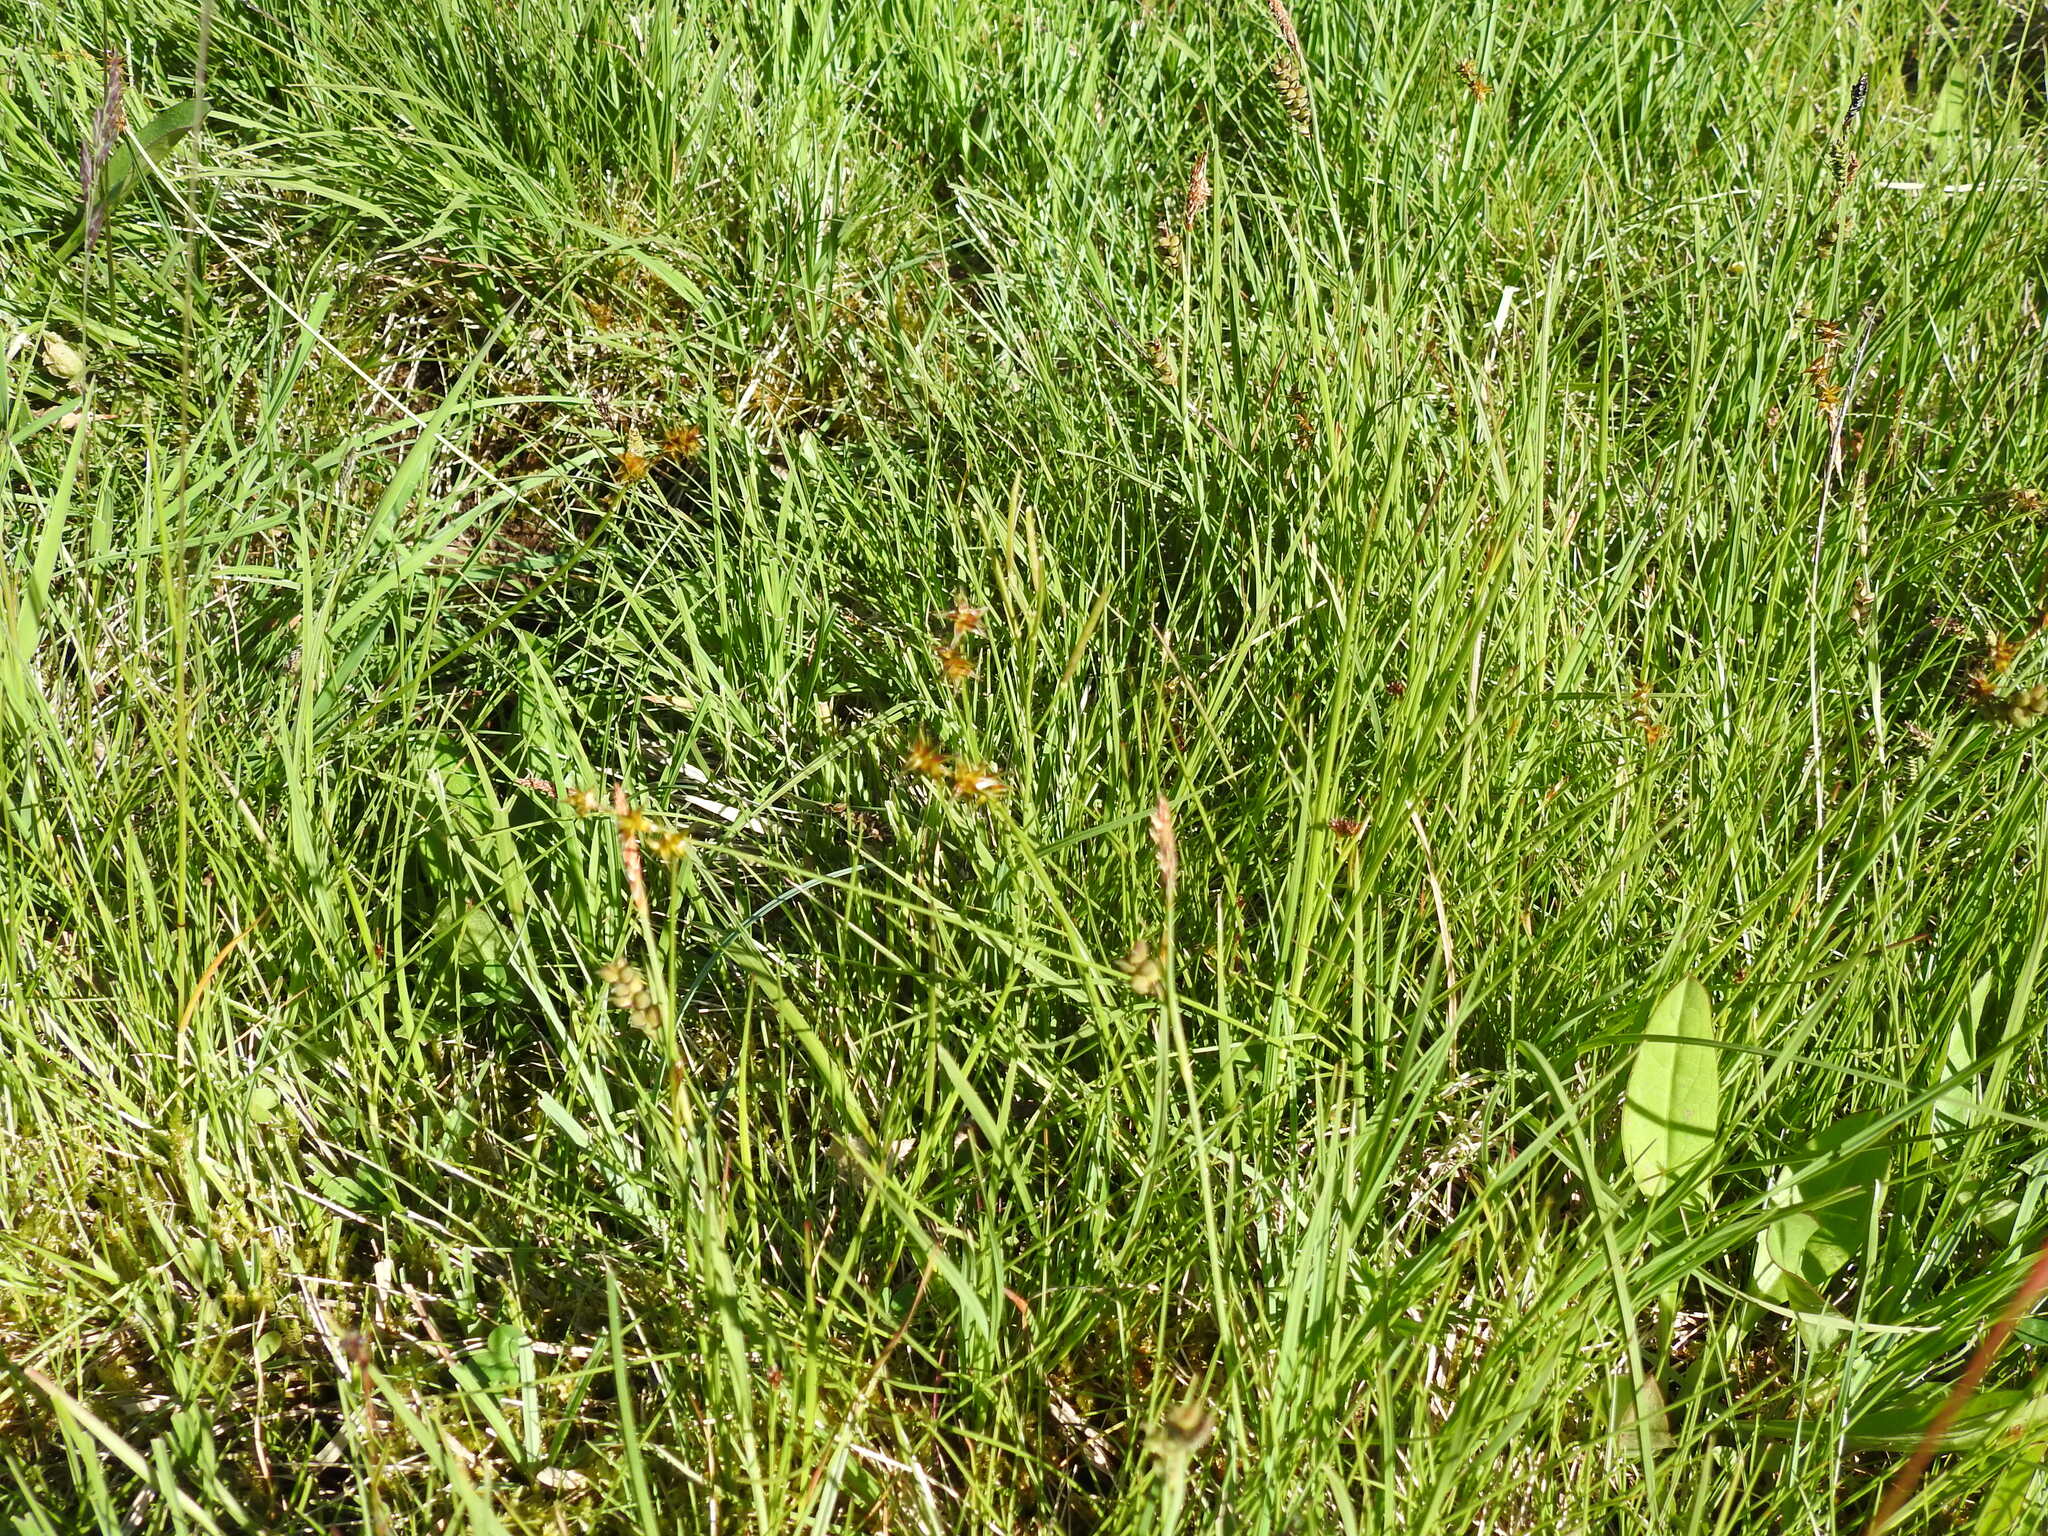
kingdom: Plantae
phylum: Tracheophyta
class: Liliopsida
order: Poales
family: Cyperaceae
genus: Carex
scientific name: Carex echinata
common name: Star sedge
